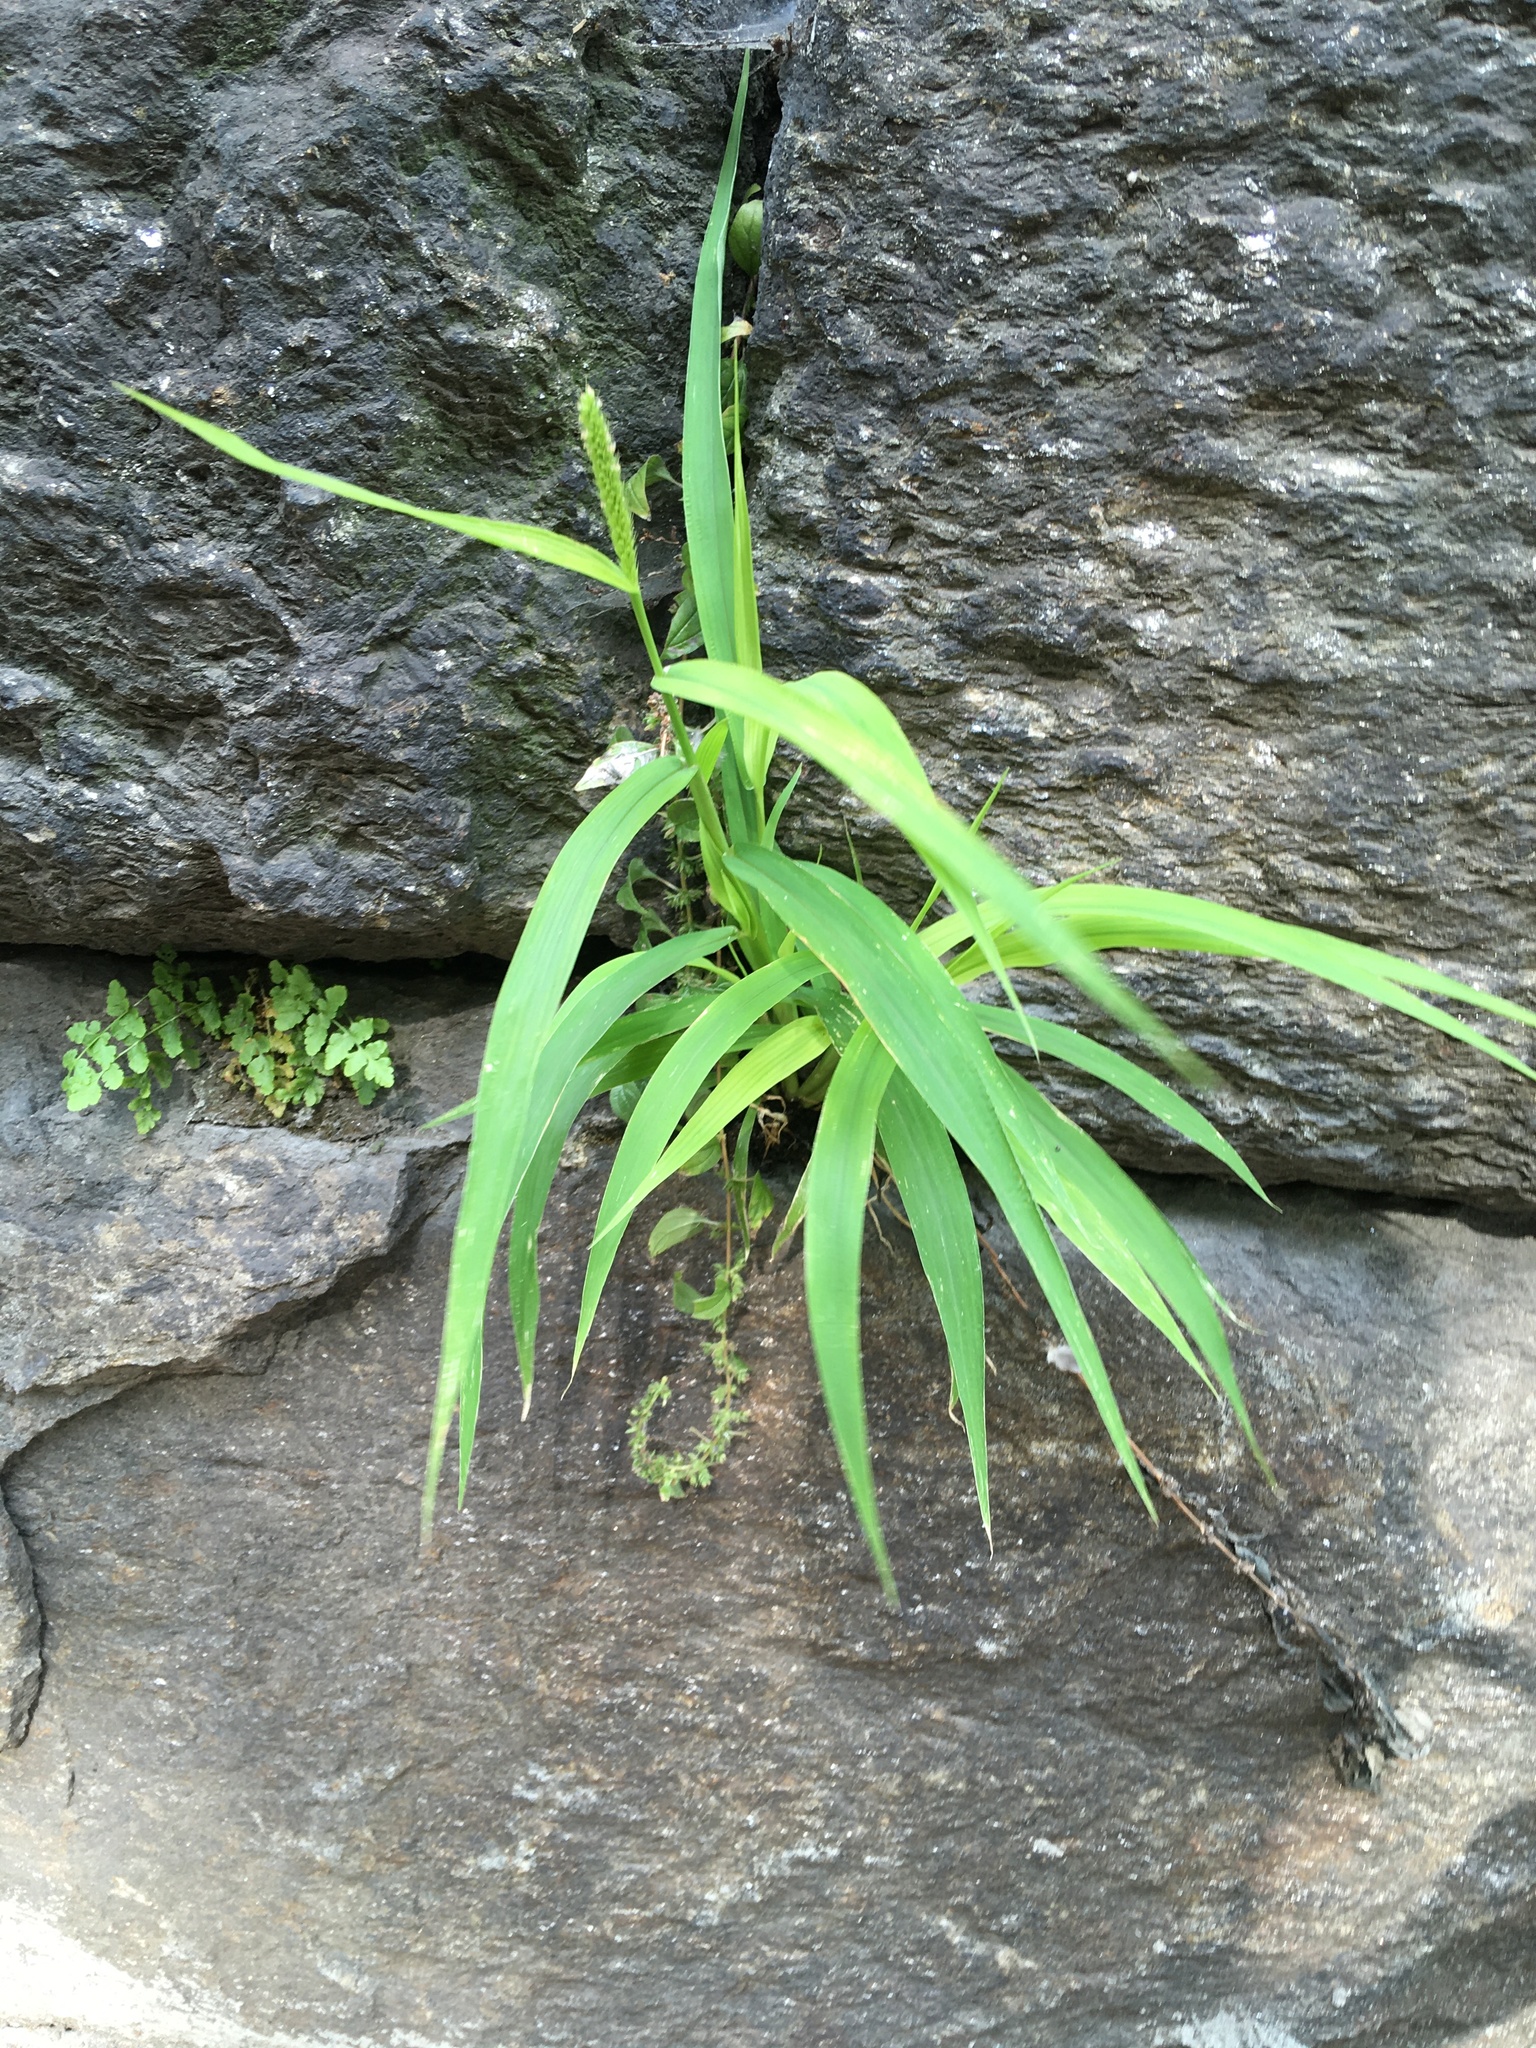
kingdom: Plantae
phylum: Tracheophyta
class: Liliopsida
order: Poales
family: Poaceae
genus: Setaria
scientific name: Setaria viridis
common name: Green bristlegrass
